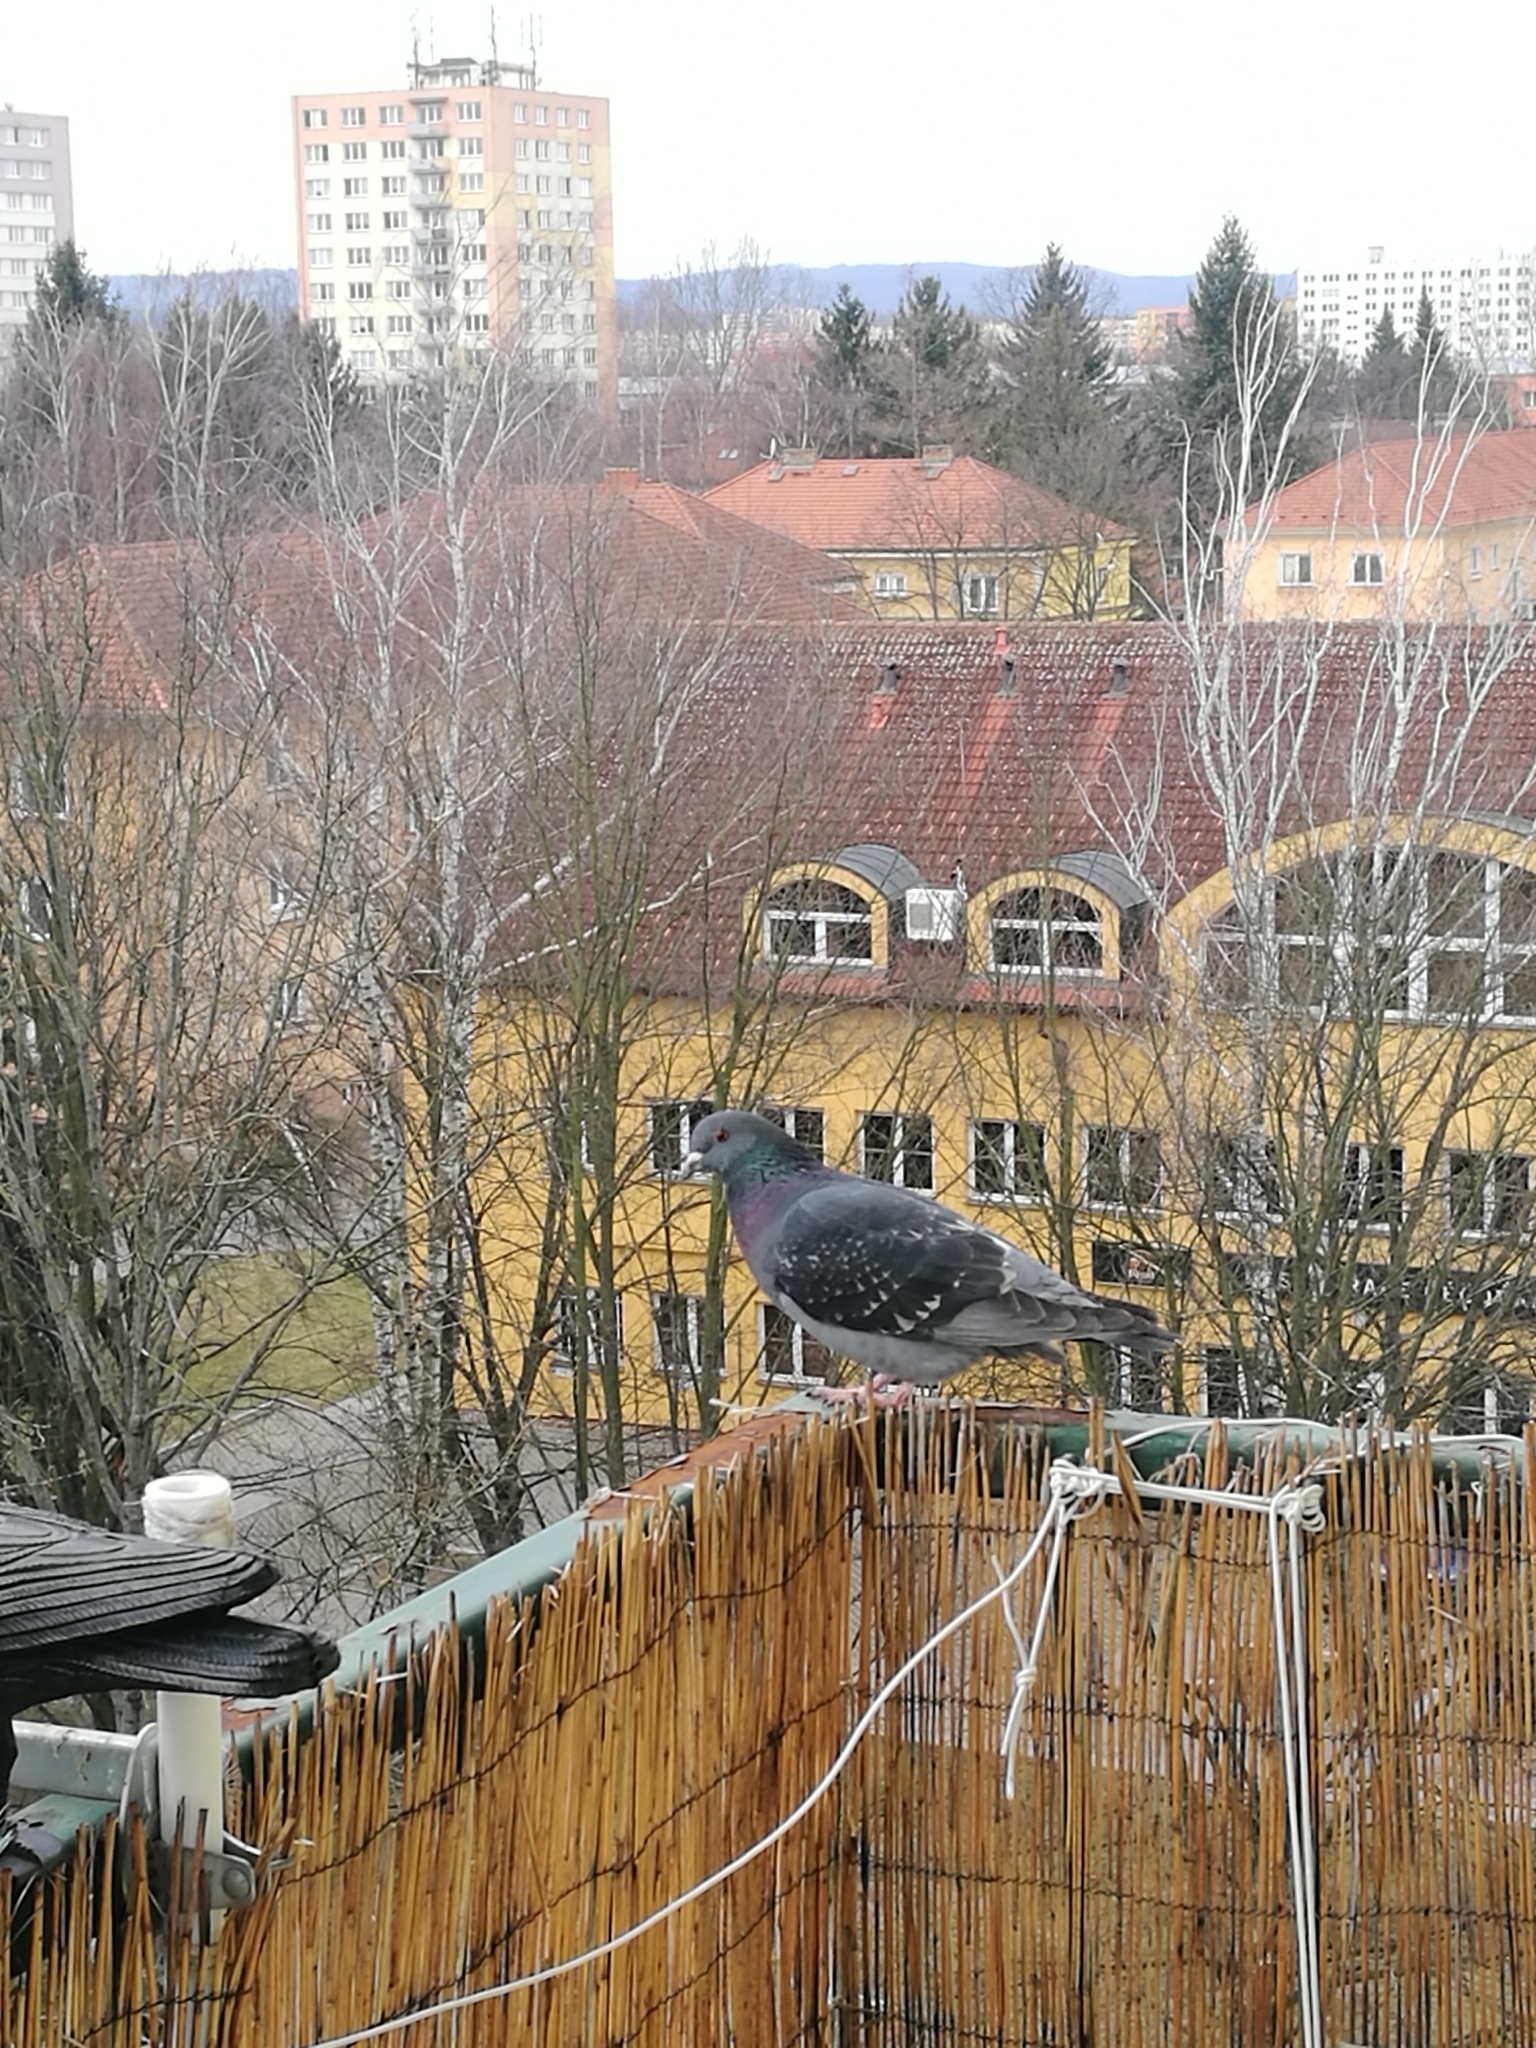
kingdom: Animalia
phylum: Chordata
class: Aves
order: Columbiformes
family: Columbidae
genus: Columba
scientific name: Columba livia
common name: Rock pigeon
